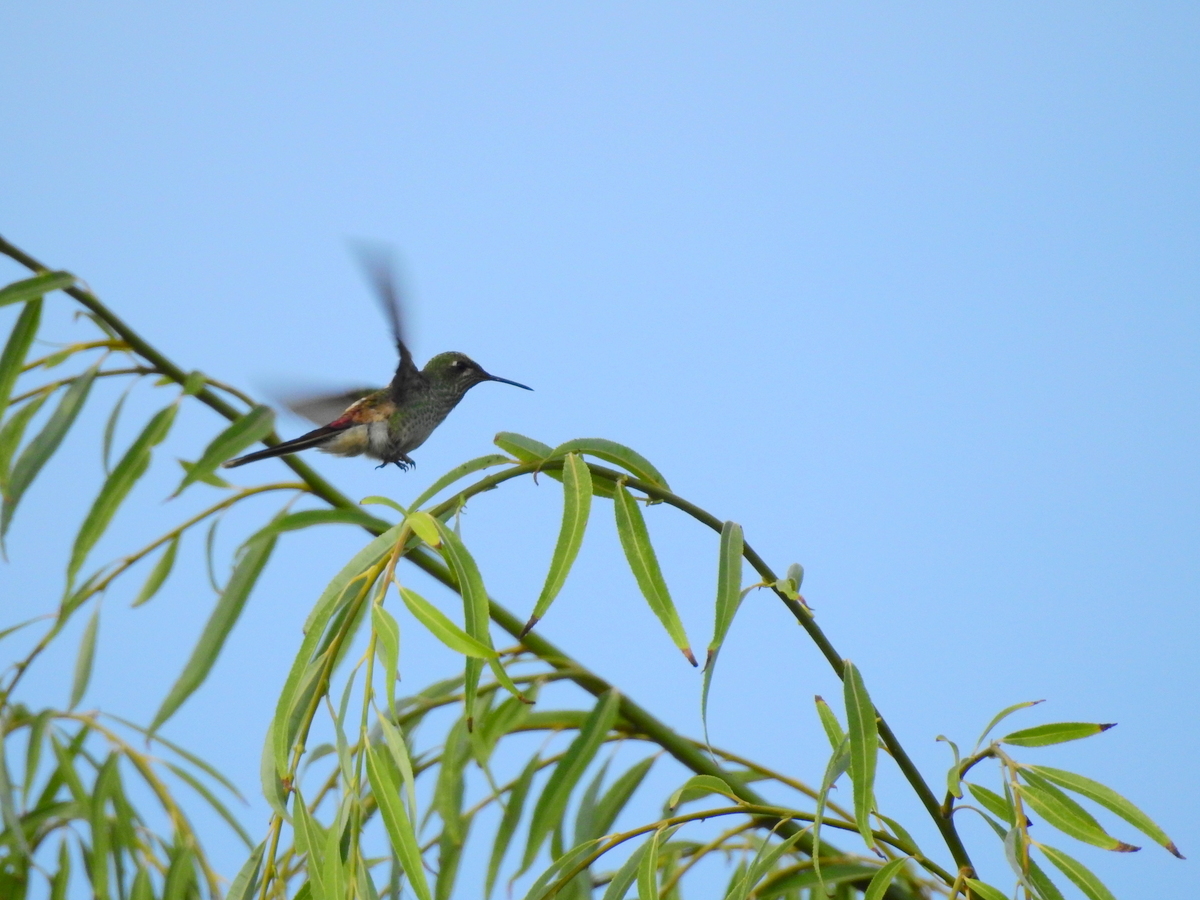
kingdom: Animalia
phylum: Chordata
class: Aves
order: Apodiformes
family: Trochilidae
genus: Sappho
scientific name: Sappho sparganurus
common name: Red-tailed comet
